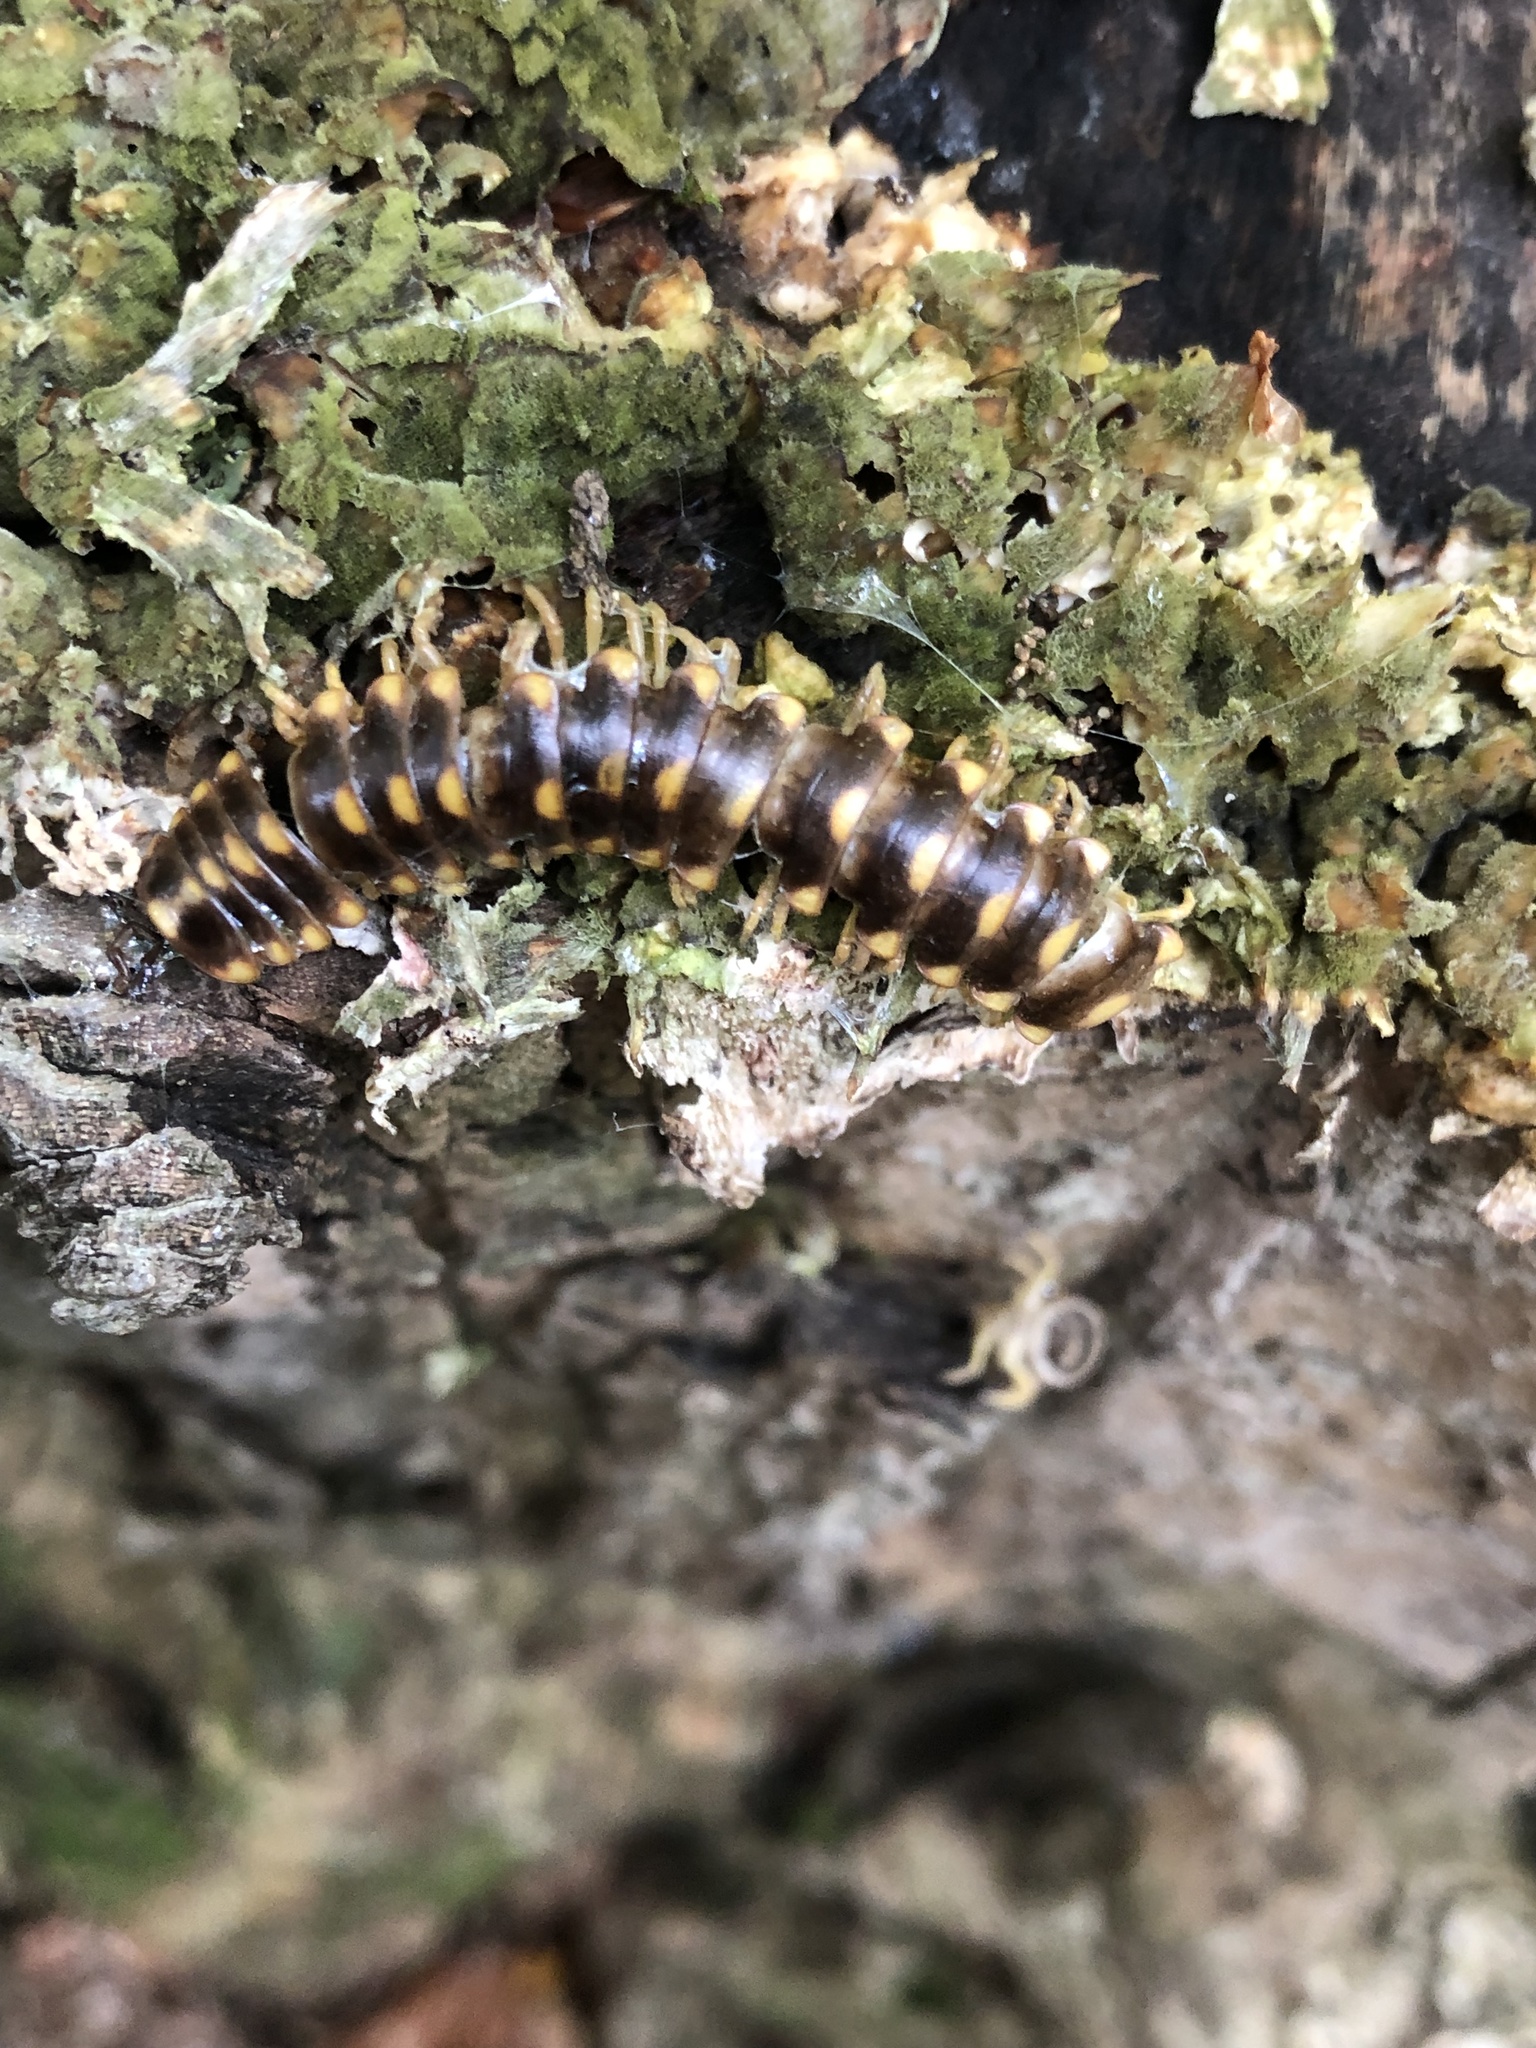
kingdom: Animalia
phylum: Arthropoda
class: Diplopoda
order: Polydesmida
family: Xystodesmidae
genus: Rudiloria
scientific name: Rudiloria trimaculata
